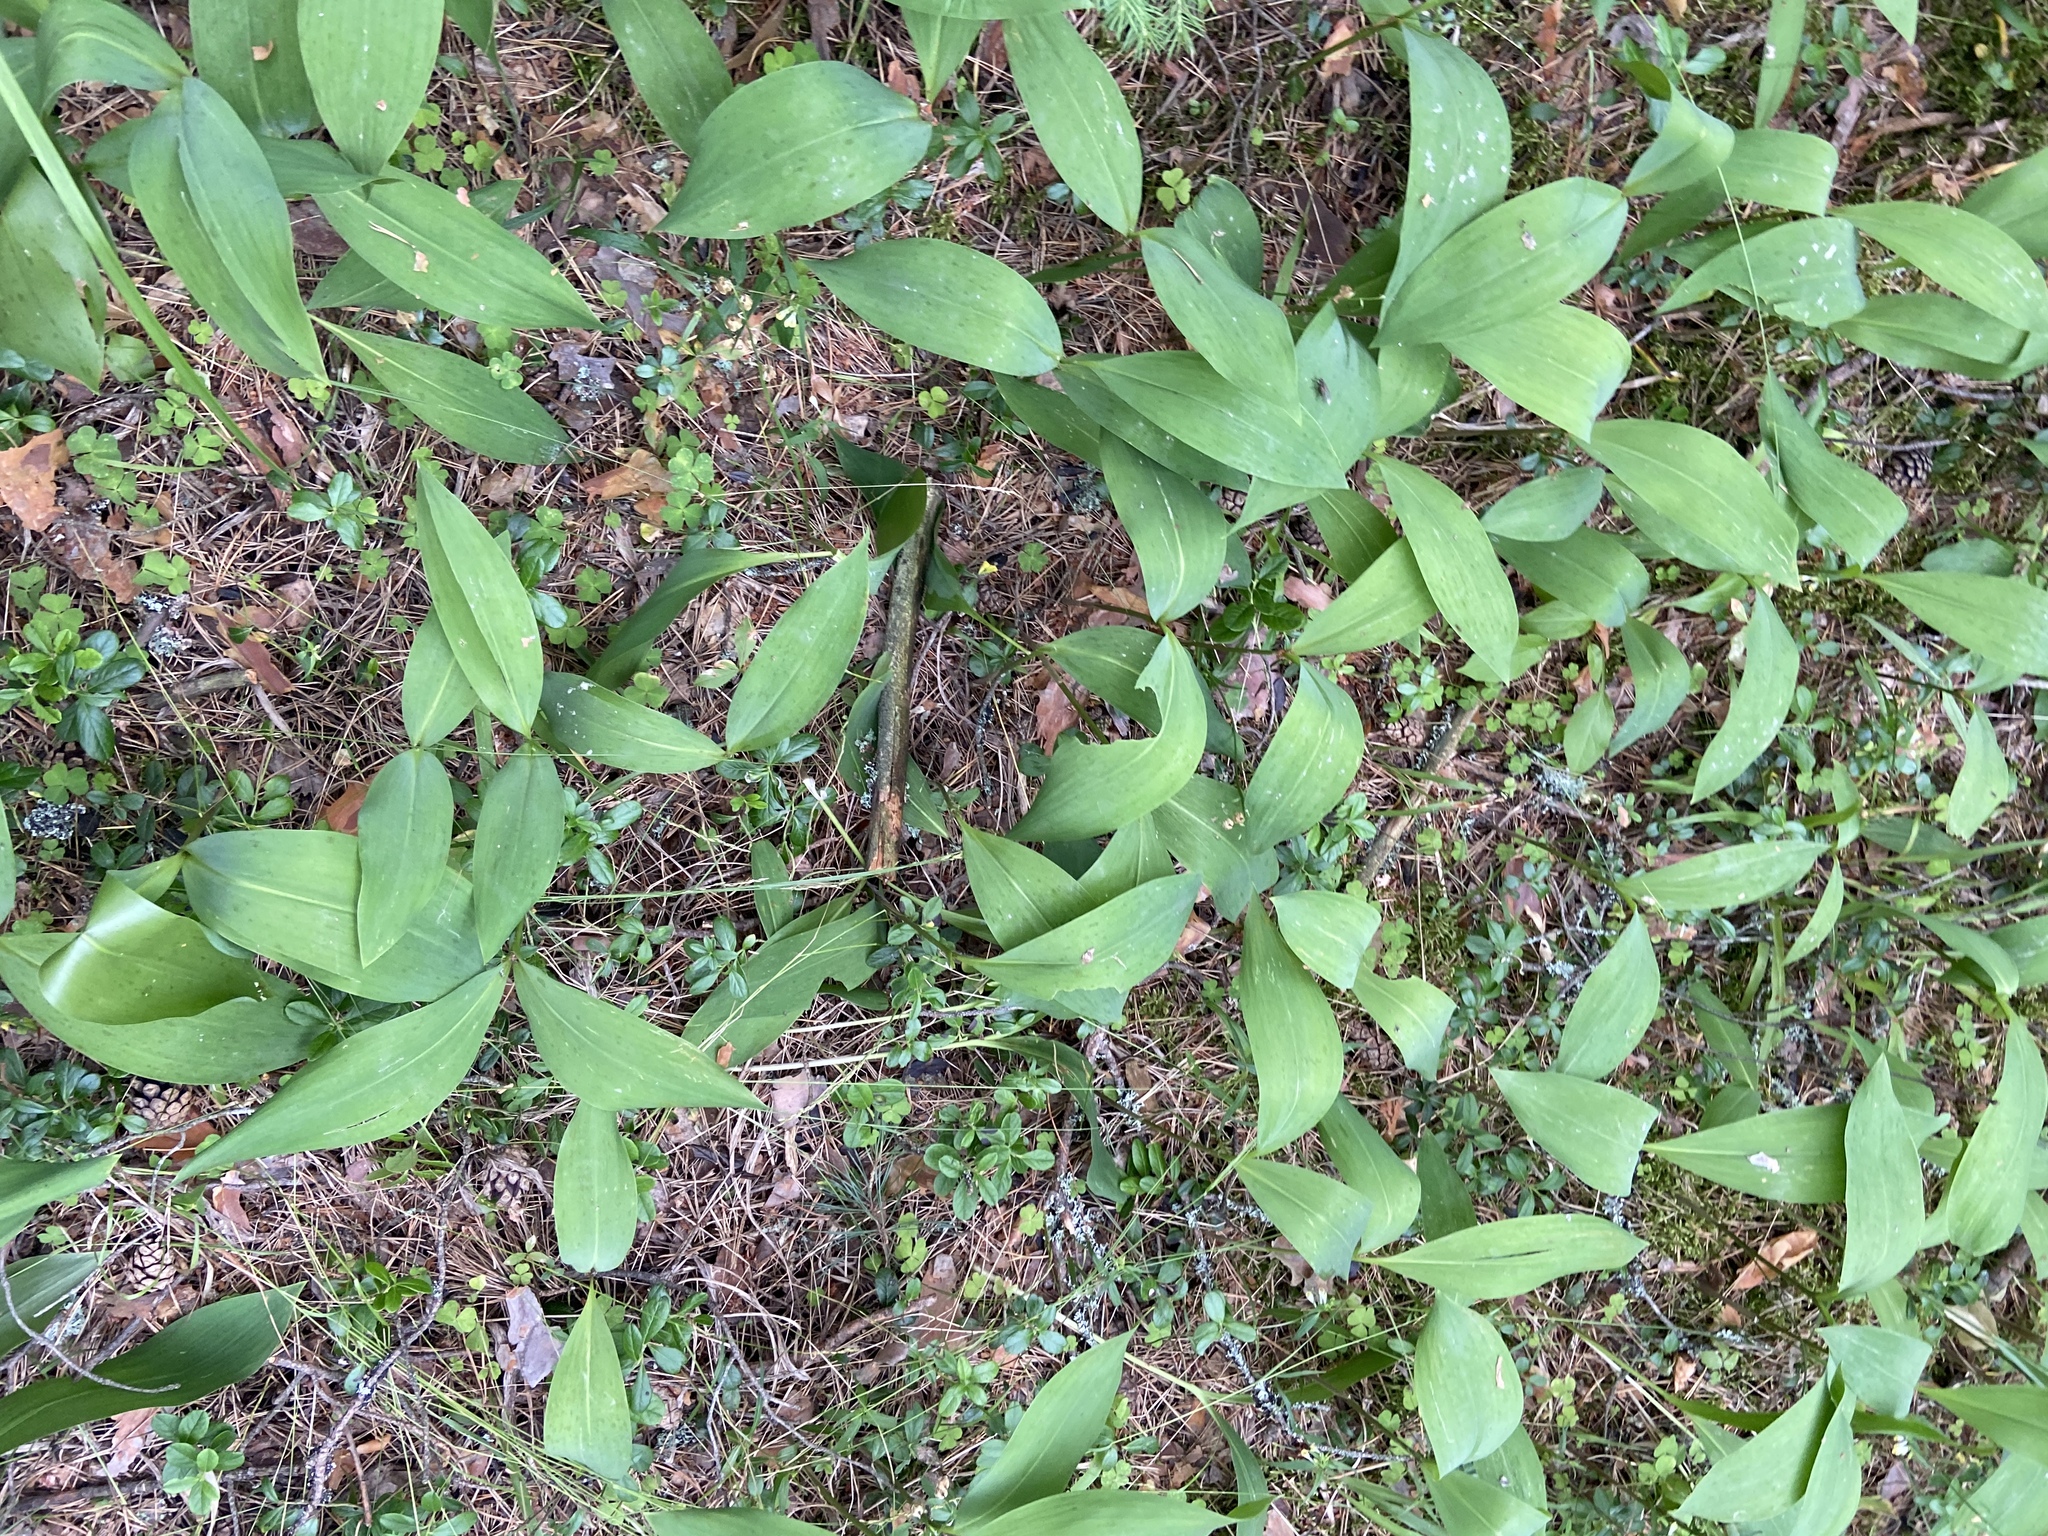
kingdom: Plantae
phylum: Tracheophyta
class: Liliopsida
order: Asparagales
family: Asparagaceae
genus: Convallaria
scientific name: Convallaria majalis
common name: Lily-of-the-valley
